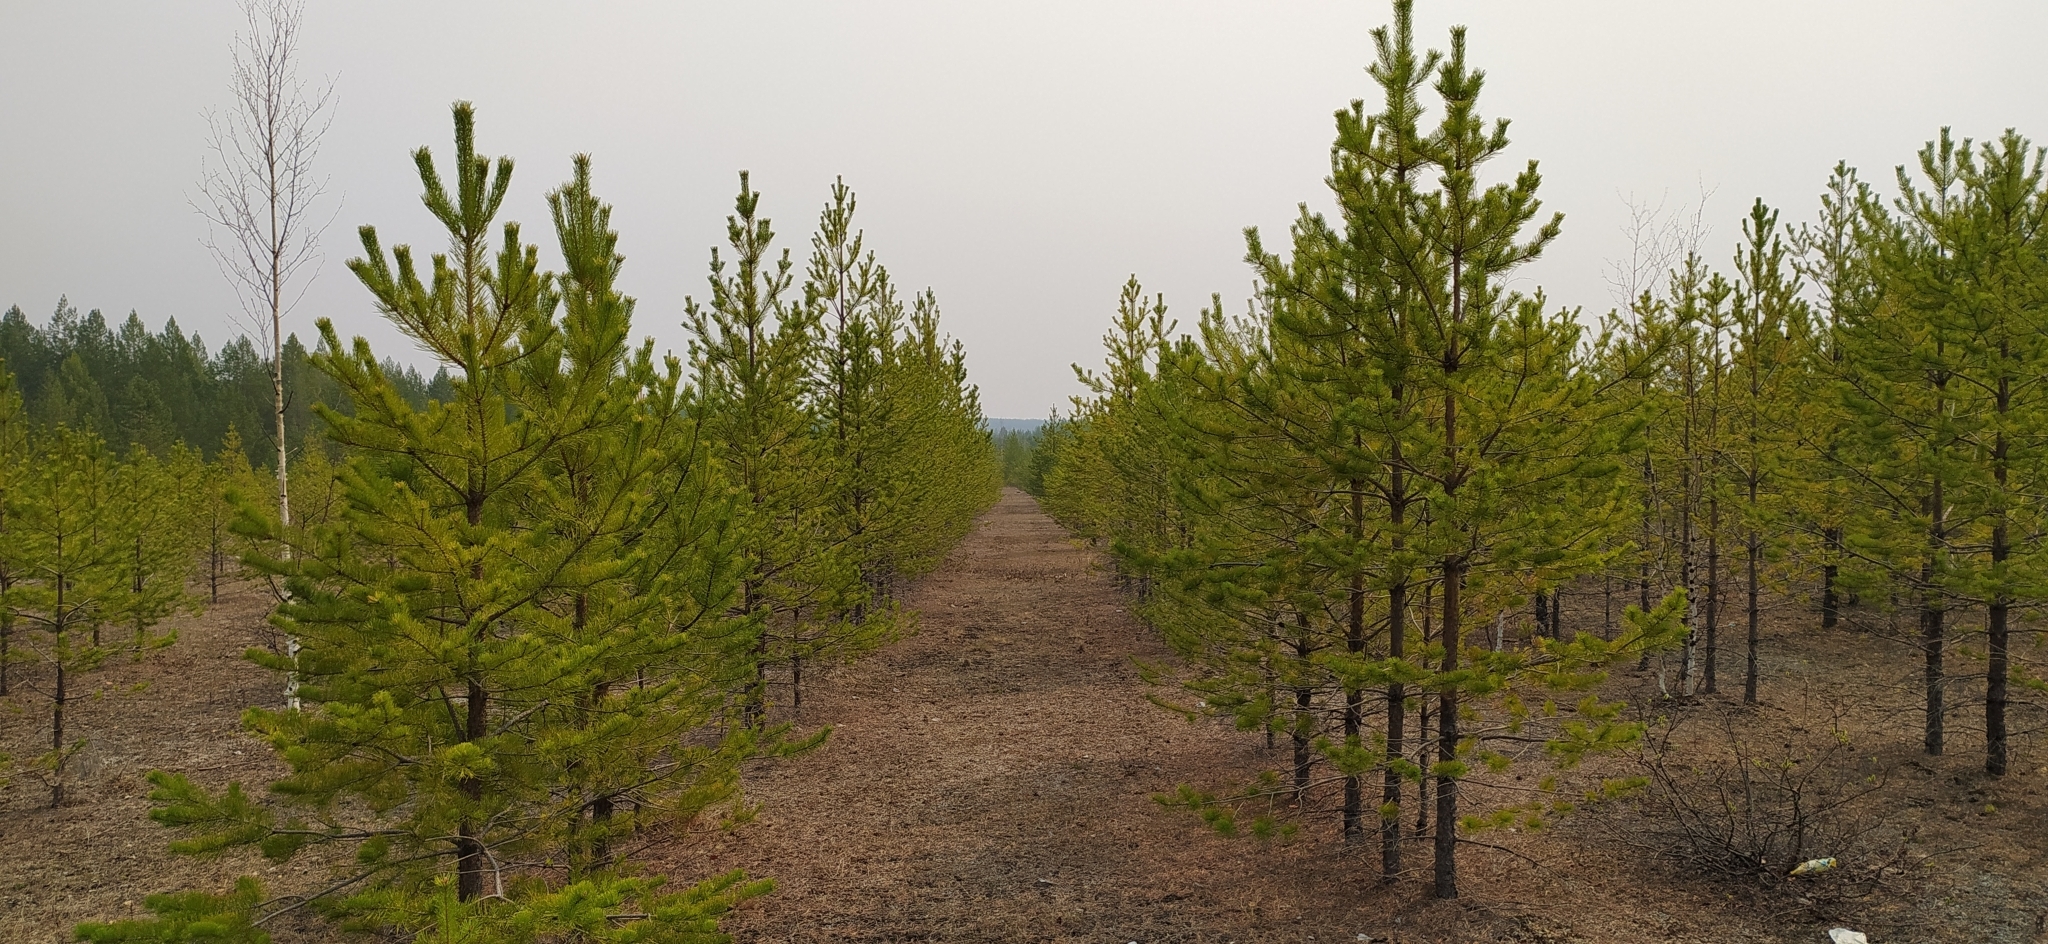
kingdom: Plantae
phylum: Tracheophyta
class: Pinopsida
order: Pinales
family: Pinaceae
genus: Pinus
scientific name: Pinus sylvestris
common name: Scots pine
